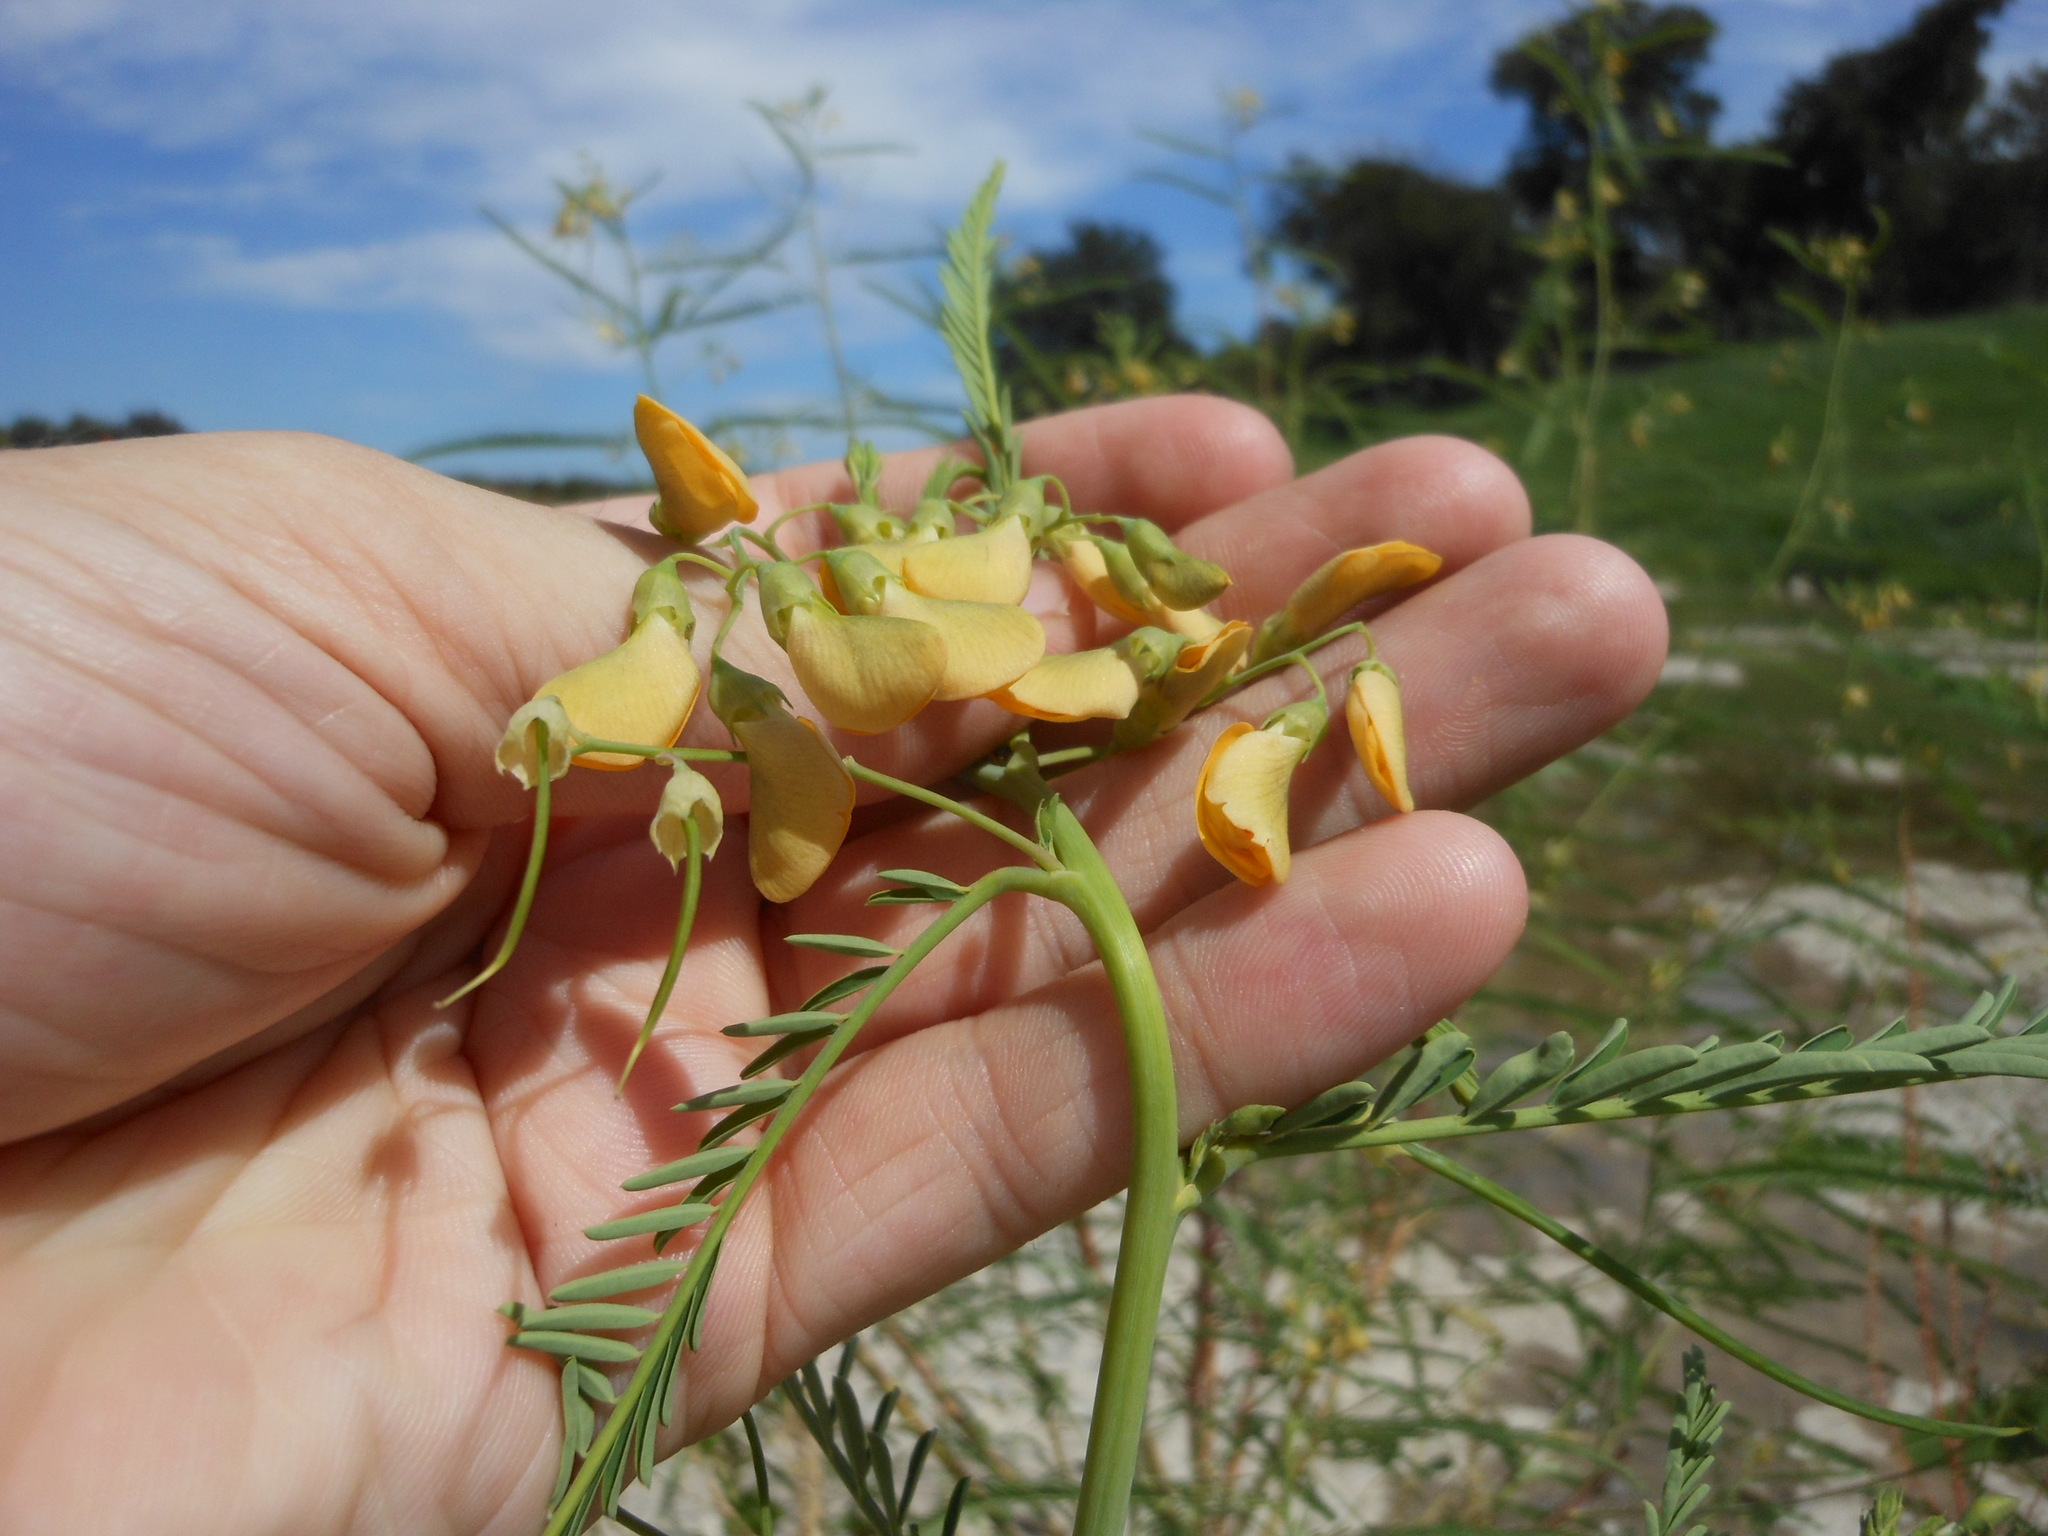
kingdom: Plantae
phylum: Tracheophyta
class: Magnoliopsida
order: Fabales
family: Fabaceae
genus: Sesbania
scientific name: Sesbania herbacea
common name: Bigpod sesbania
